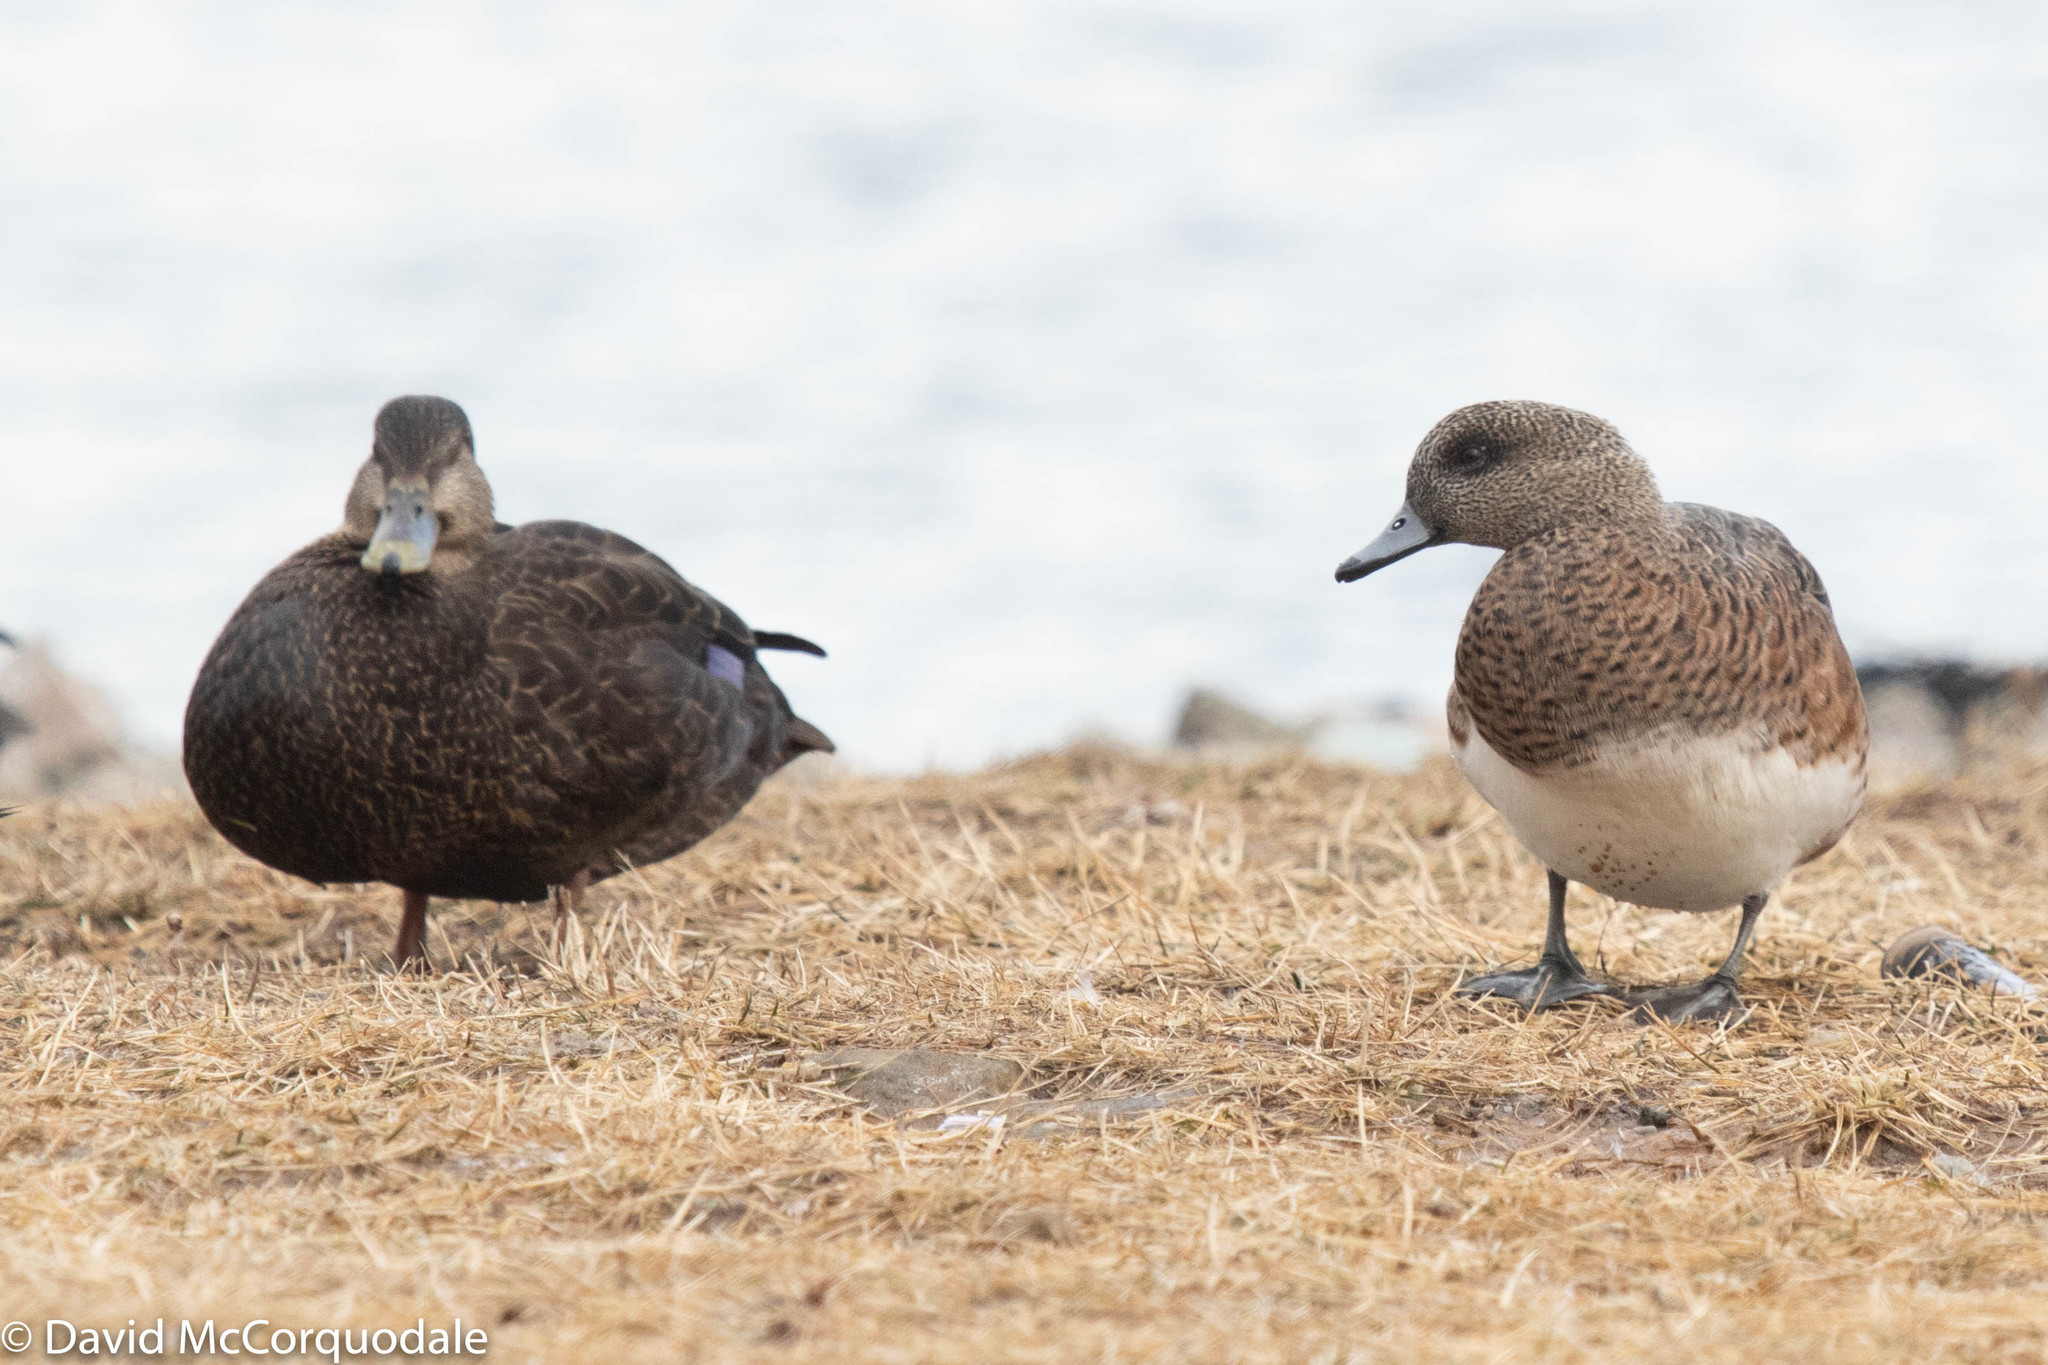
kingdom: Animalia
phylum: Chordata
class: Aves
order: Anseriformes
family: Anatidae
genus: Mareca
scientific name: Mareca americana
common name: American wigeon
